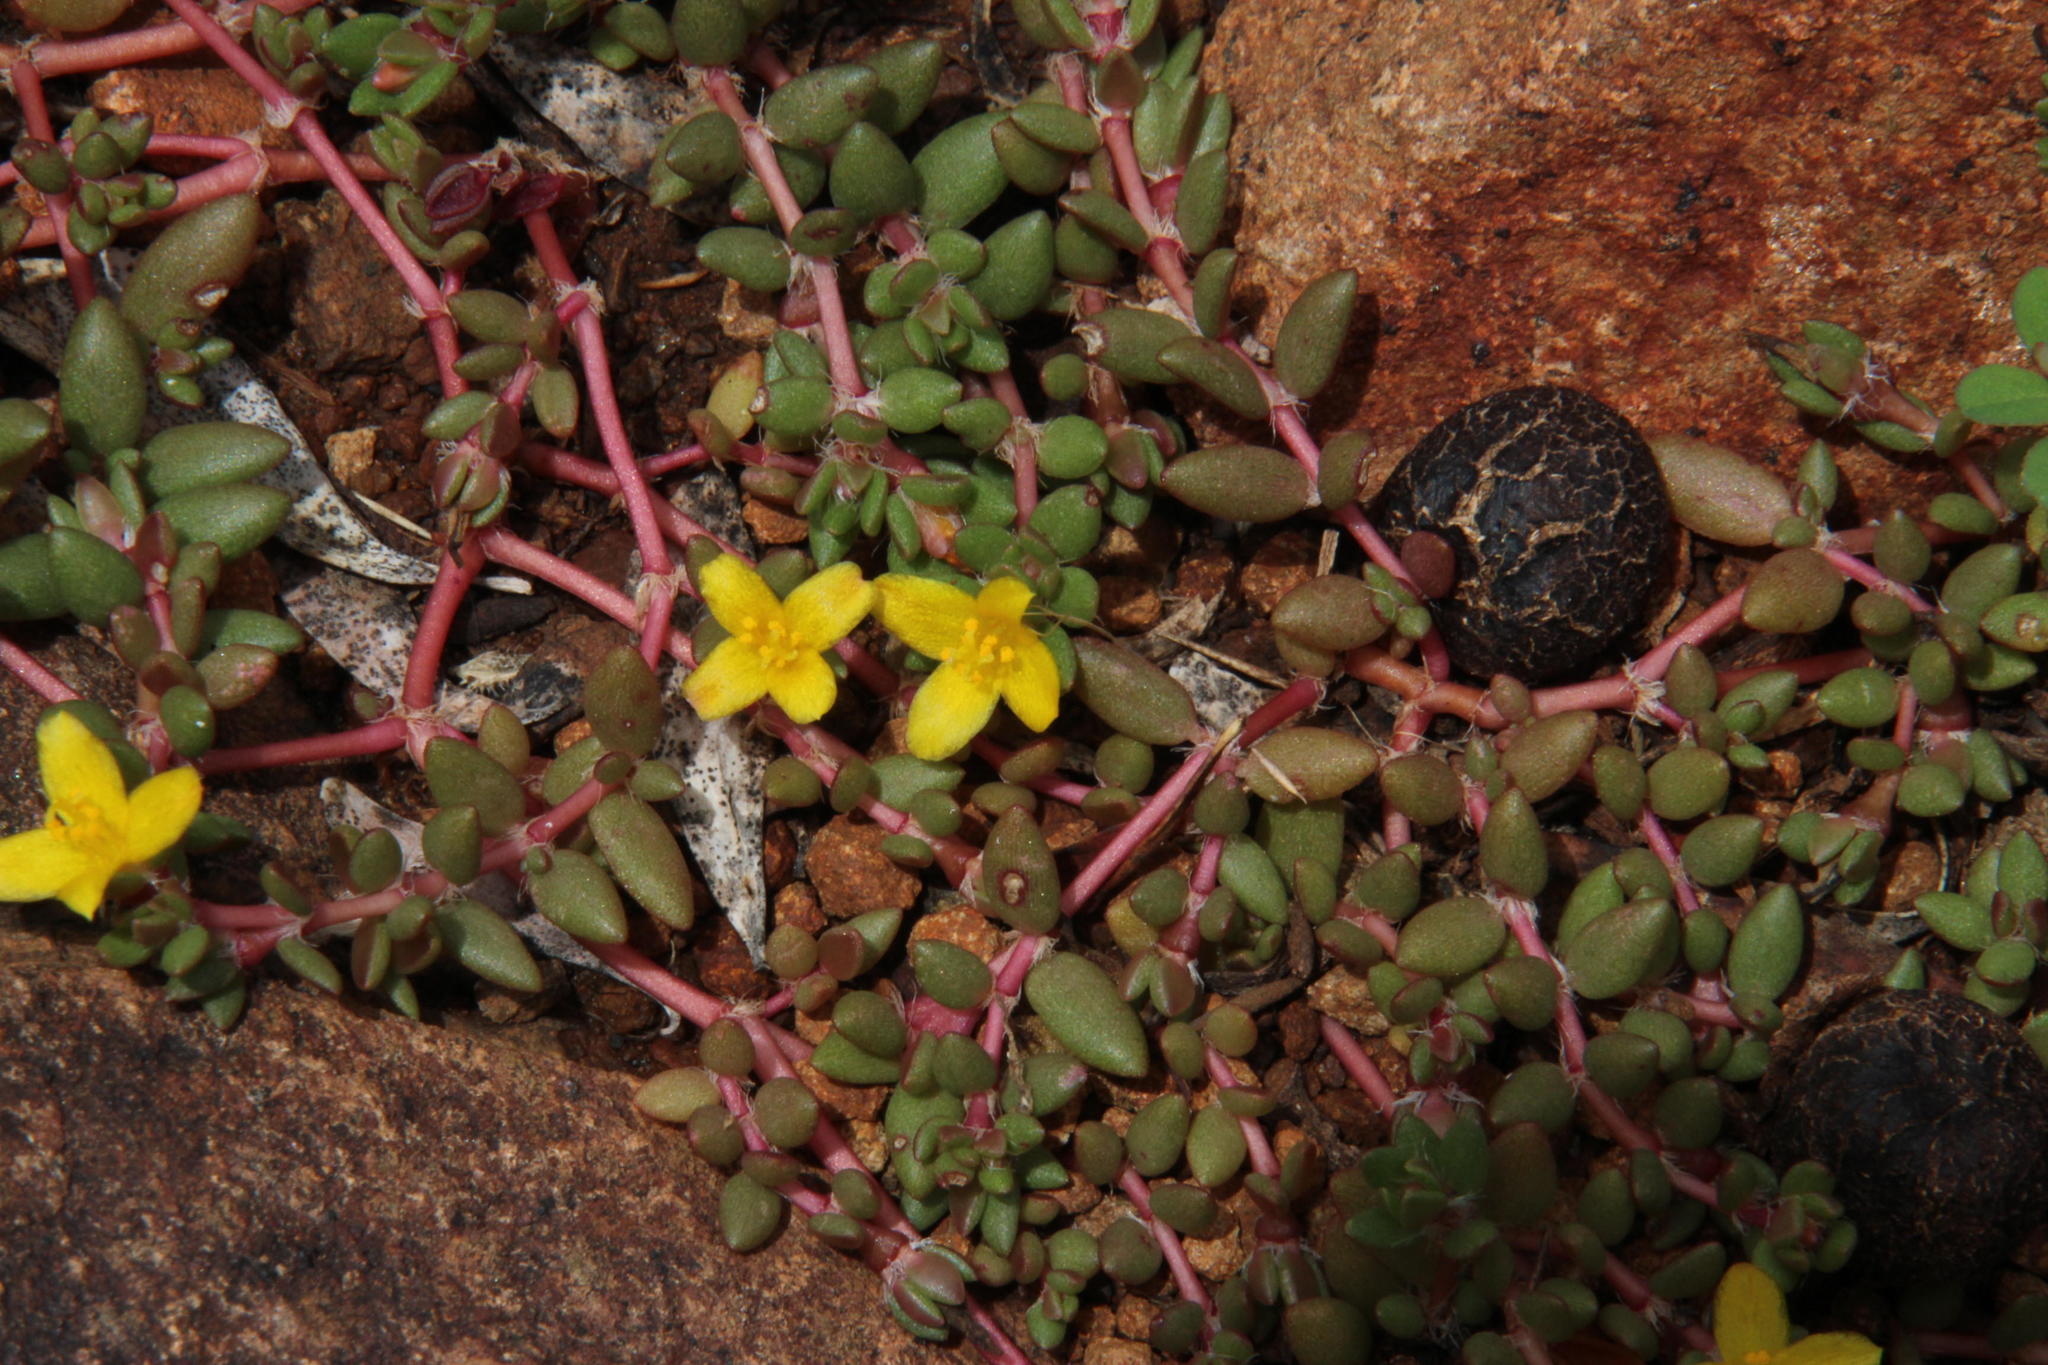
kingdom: Plantae
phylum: Tracheophyta
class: Magnoliopsida
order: Caryophyllales
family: Portulacaceae
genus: Portulaca
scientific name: Portulaca quadrifida
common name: Chickenweed
